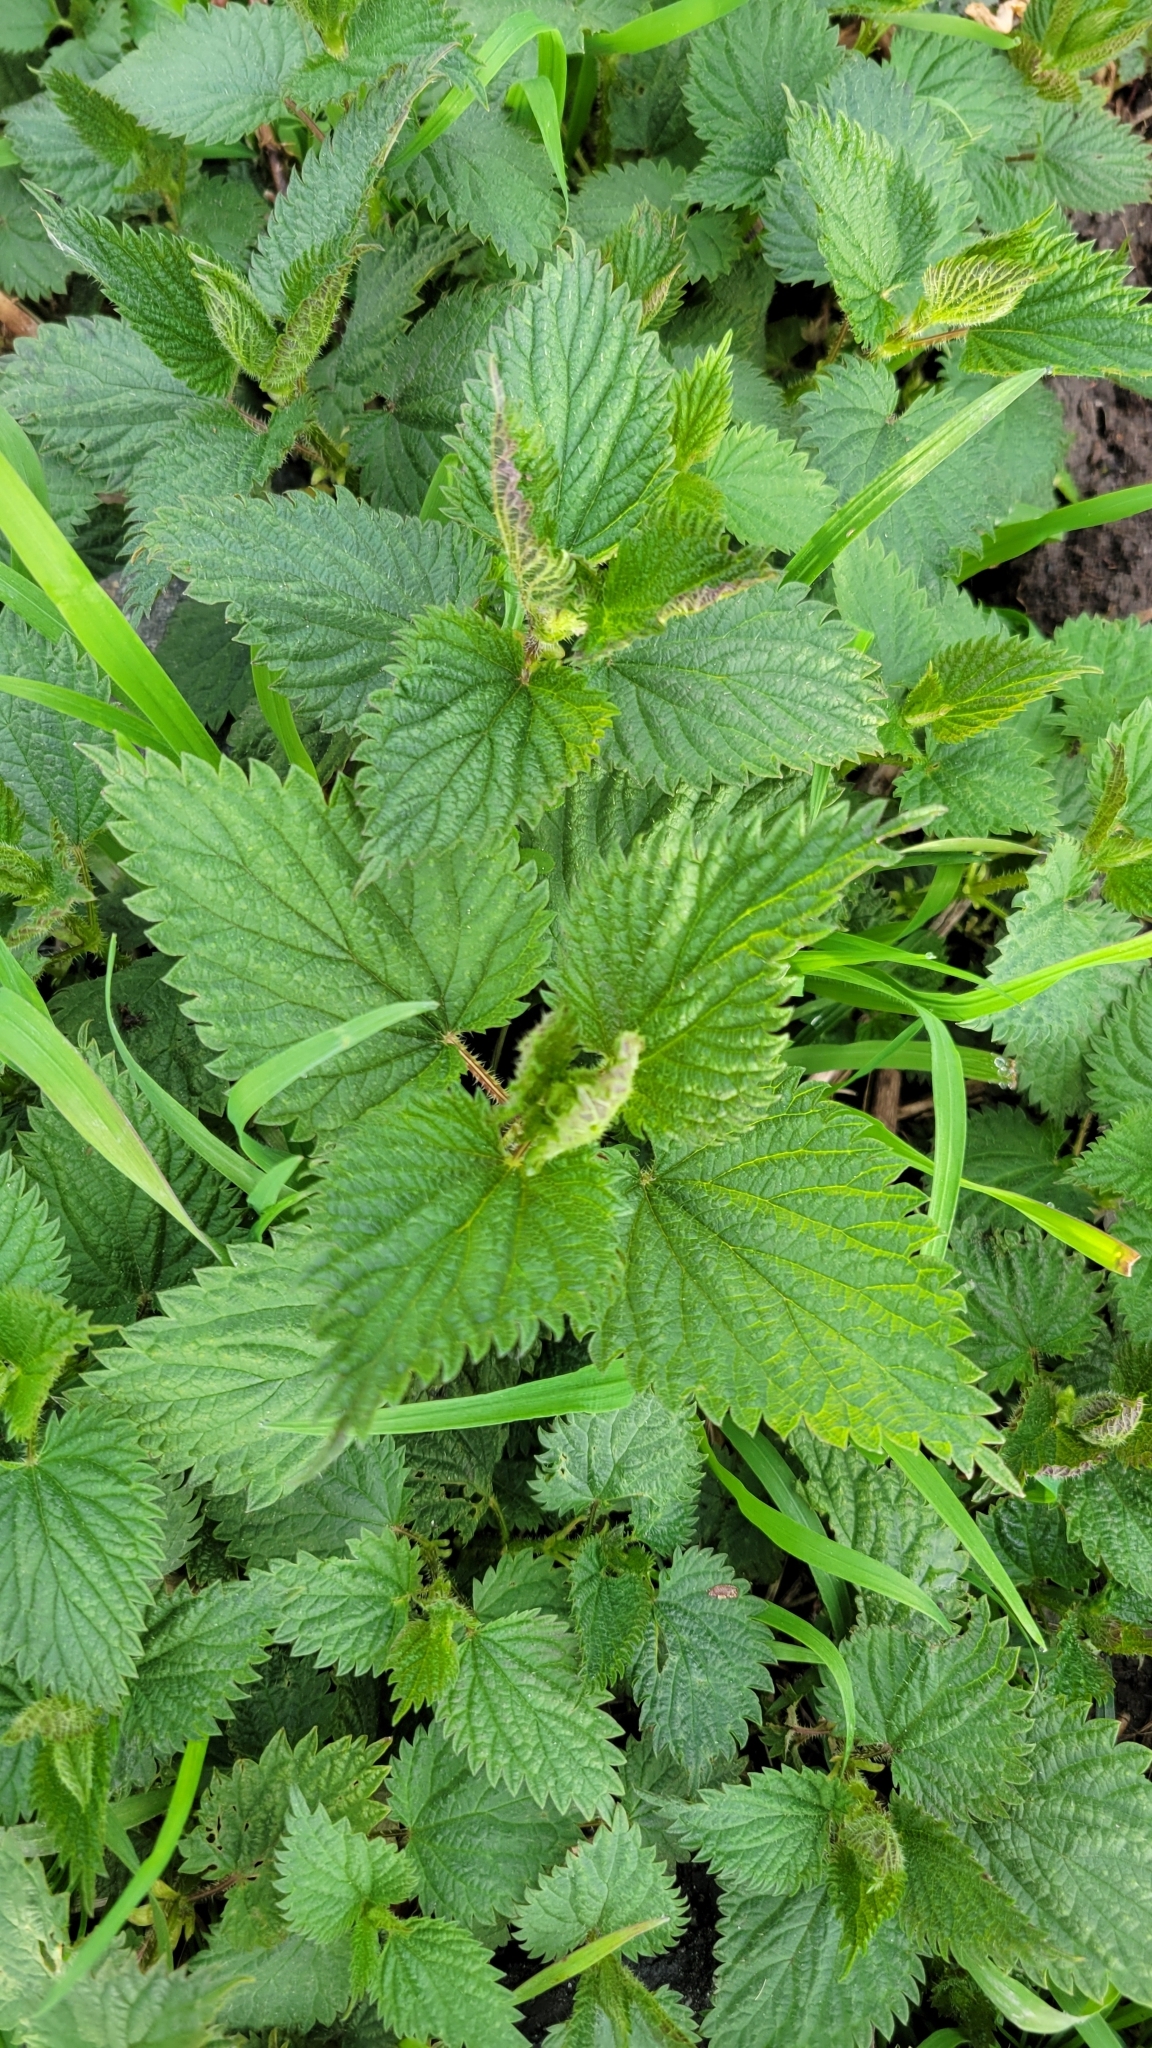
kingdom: Plantae
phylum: Tracheophyta
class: Magnoliopsida
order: Rosales
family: Urticaceae
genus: Urtica
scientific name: Urtica dioica
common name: Common nettle
